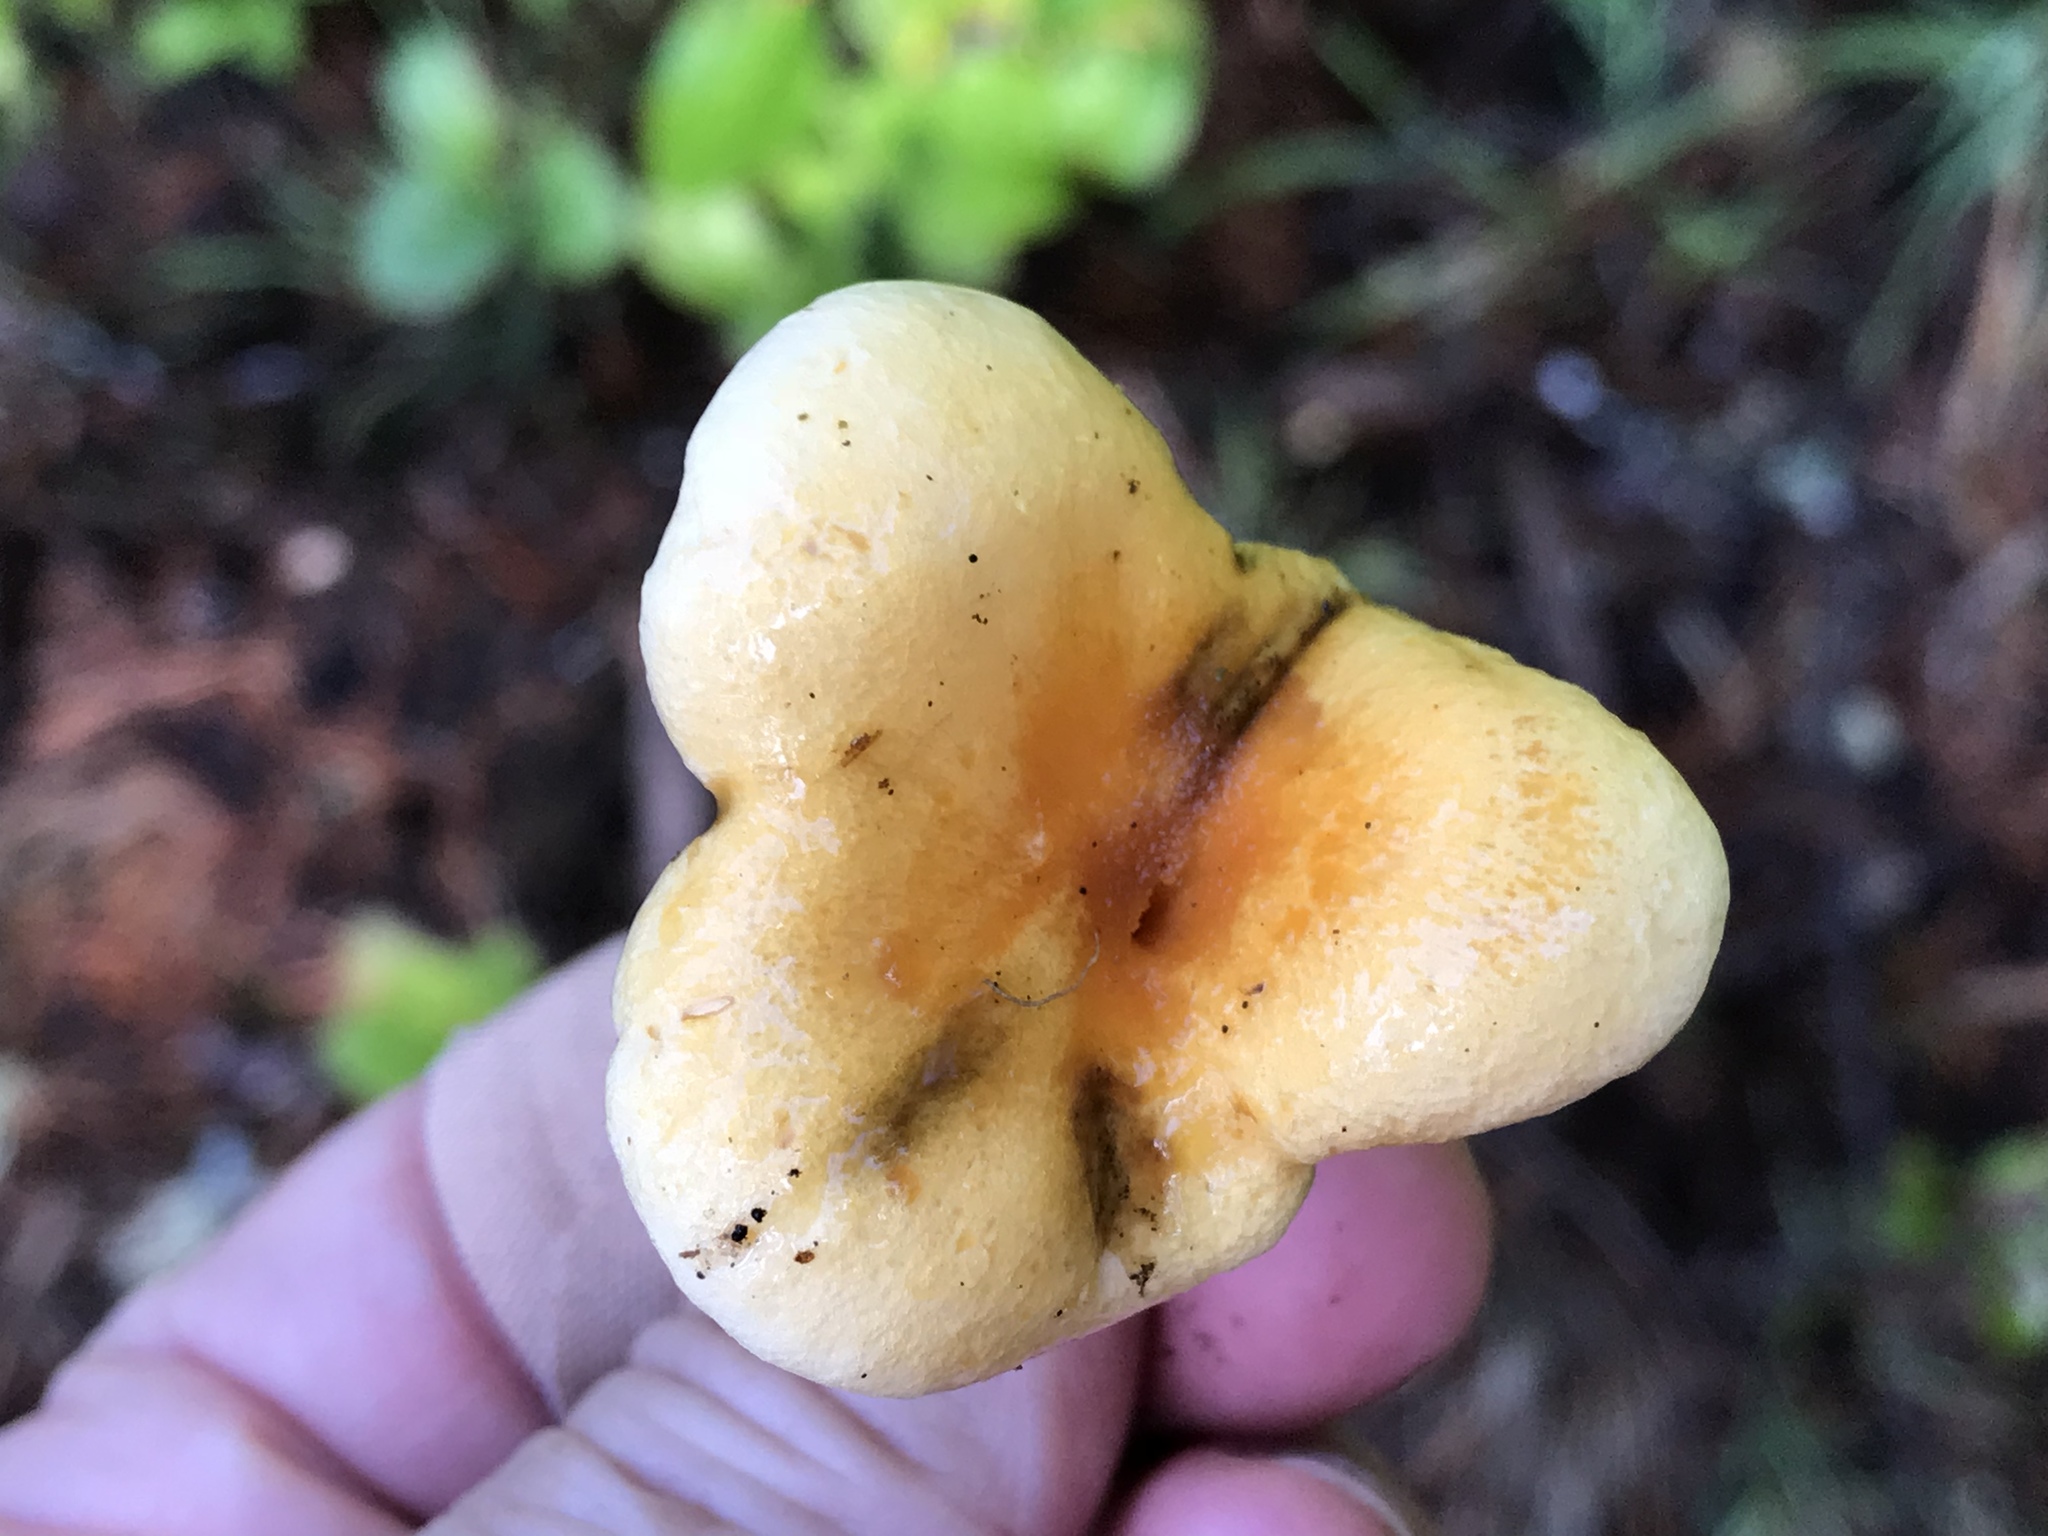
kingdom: Fungi
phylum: Basidiomycota
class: Agaricomycetes
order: Boletales
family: Hygrophoropsidaceae
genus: Hygrophoropsis
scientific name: Hygrophoropsis aurantiaca
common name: False chanterelle
